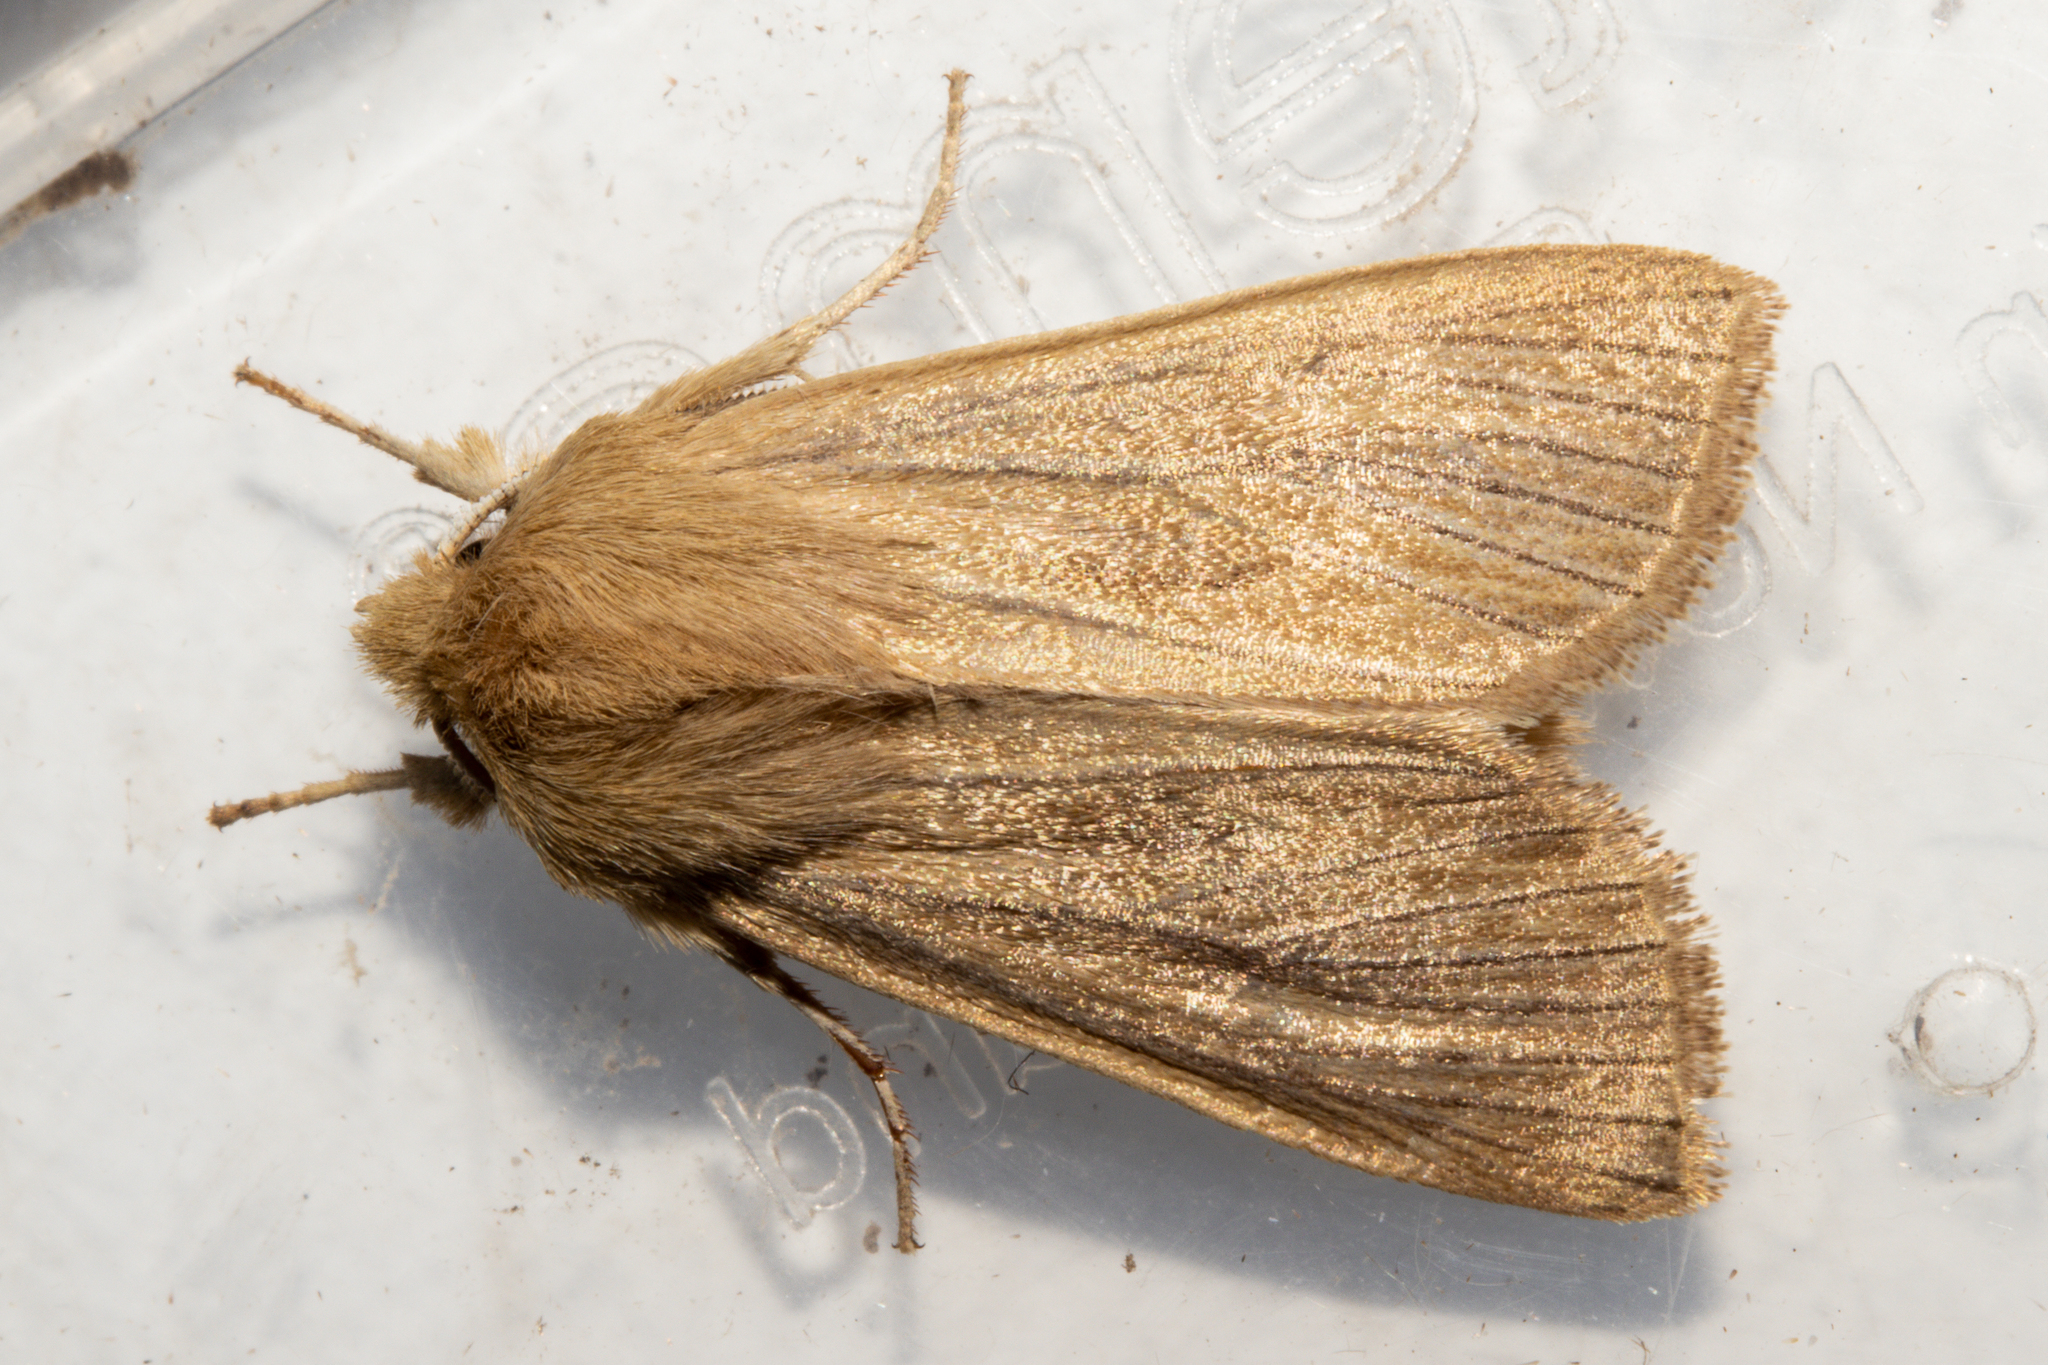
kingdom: Animalia
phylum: Arthropoda
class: Insecta
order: Lepidoptera
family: Noctuidae
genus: Ichneutica
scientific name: Ichneutica arotis
